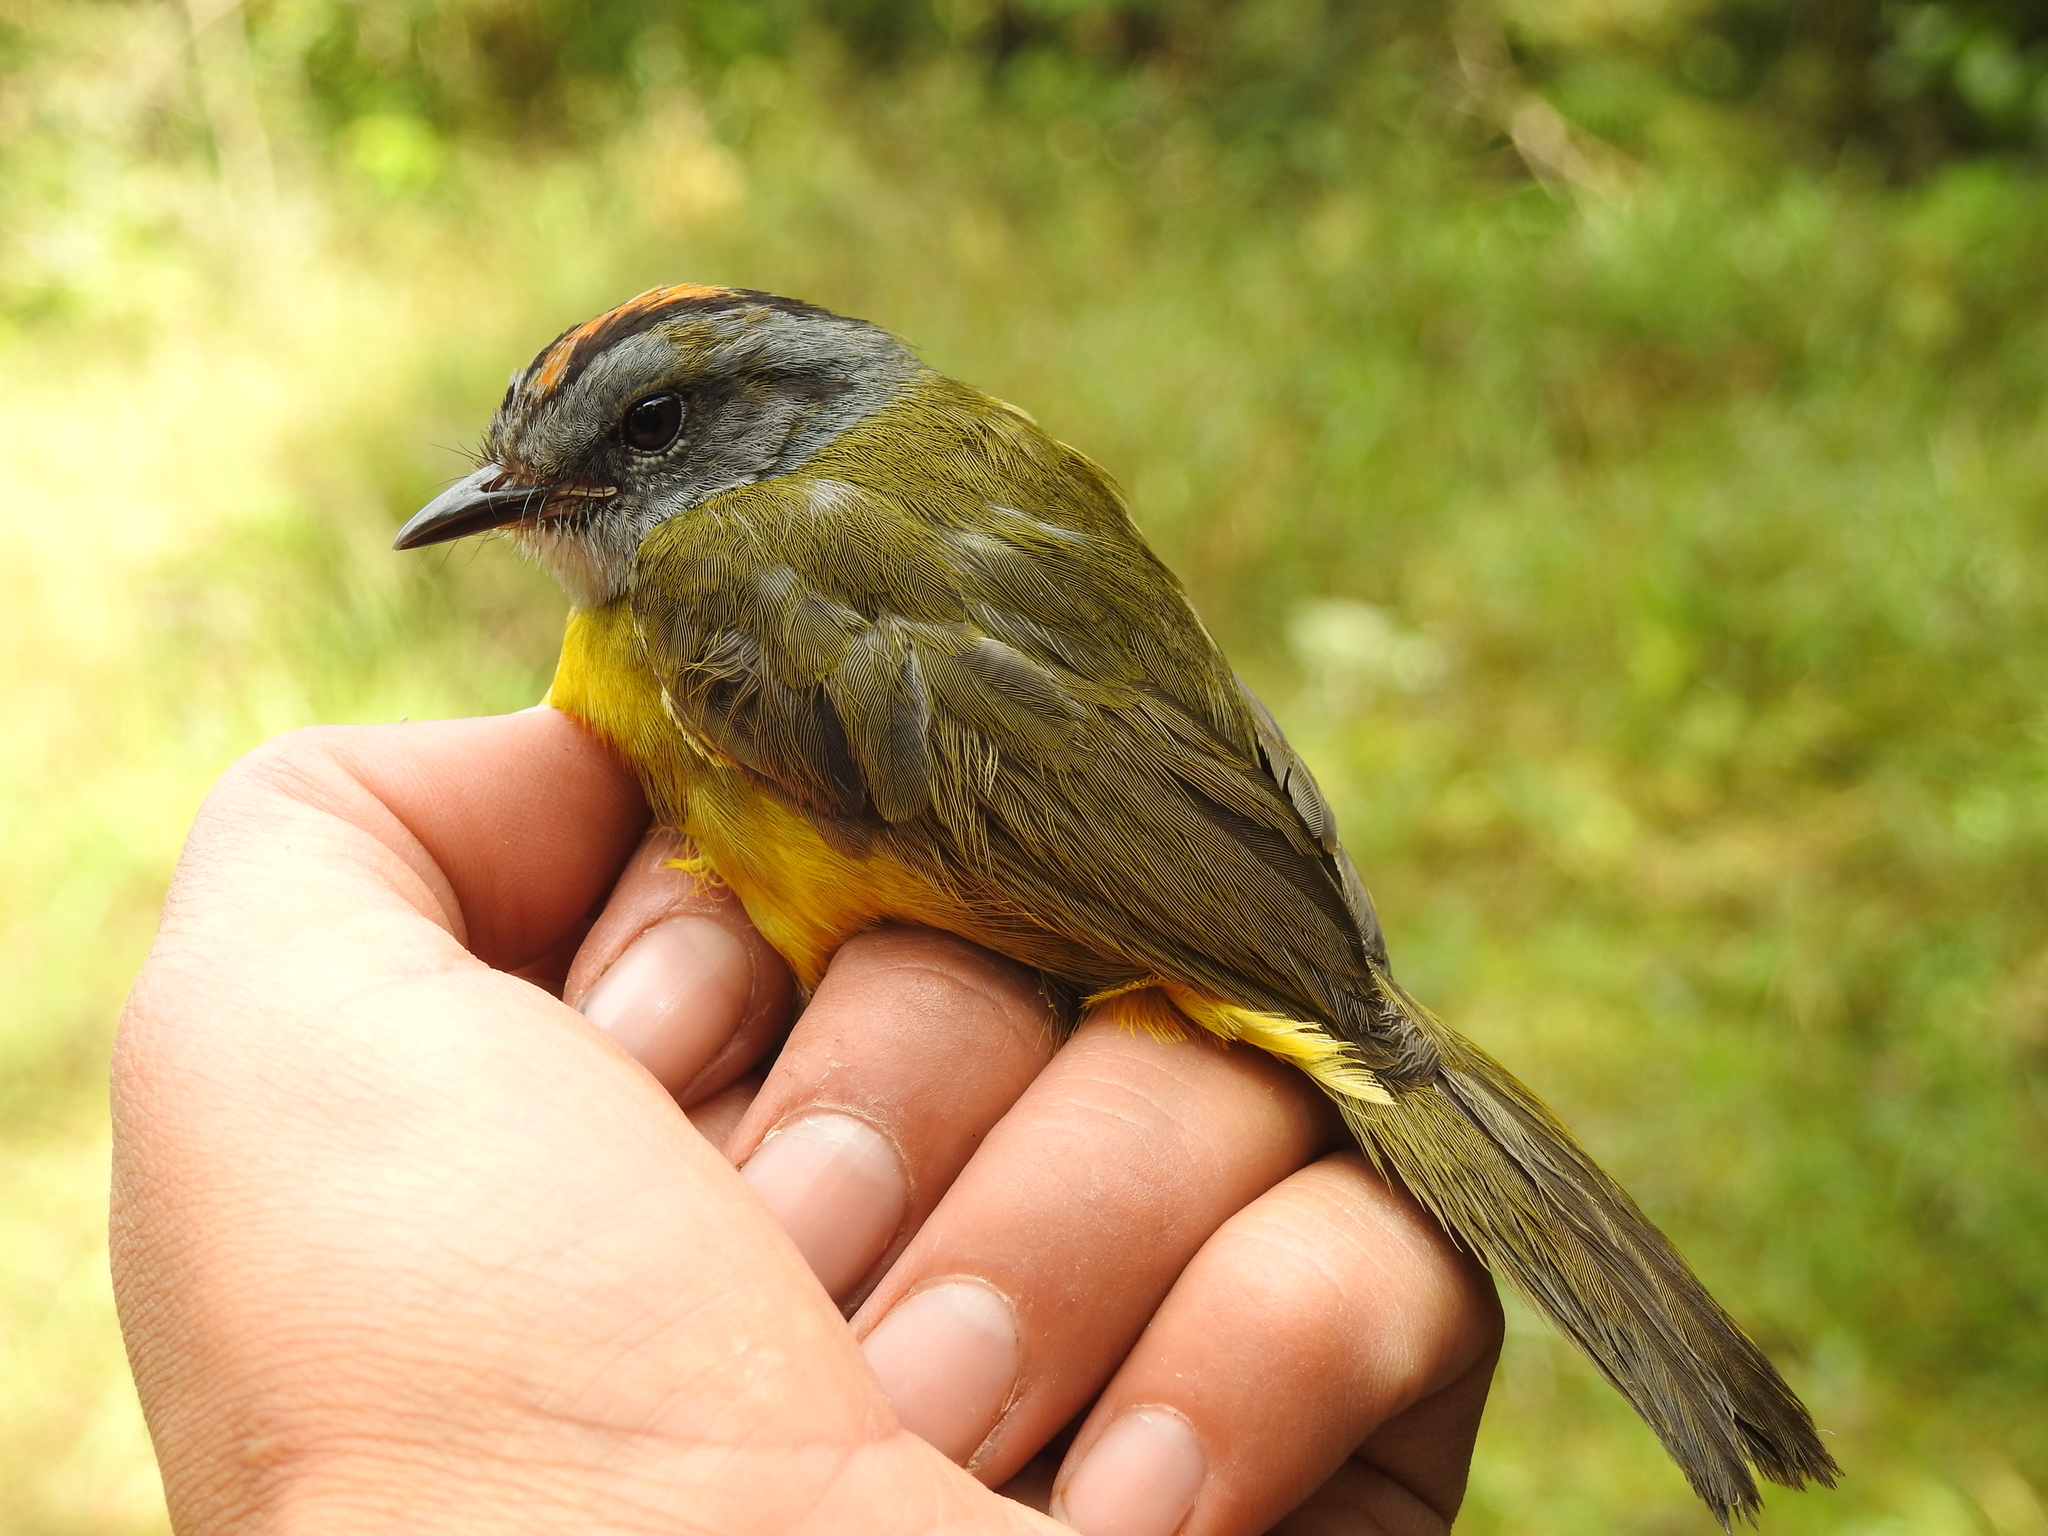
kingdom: Animalia
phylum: Chordata
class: Aves
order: Passeriformes
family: Parulidae
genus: Myiothlypis
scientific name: Myiothlypis coronata
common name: Russet-crowned warbler
